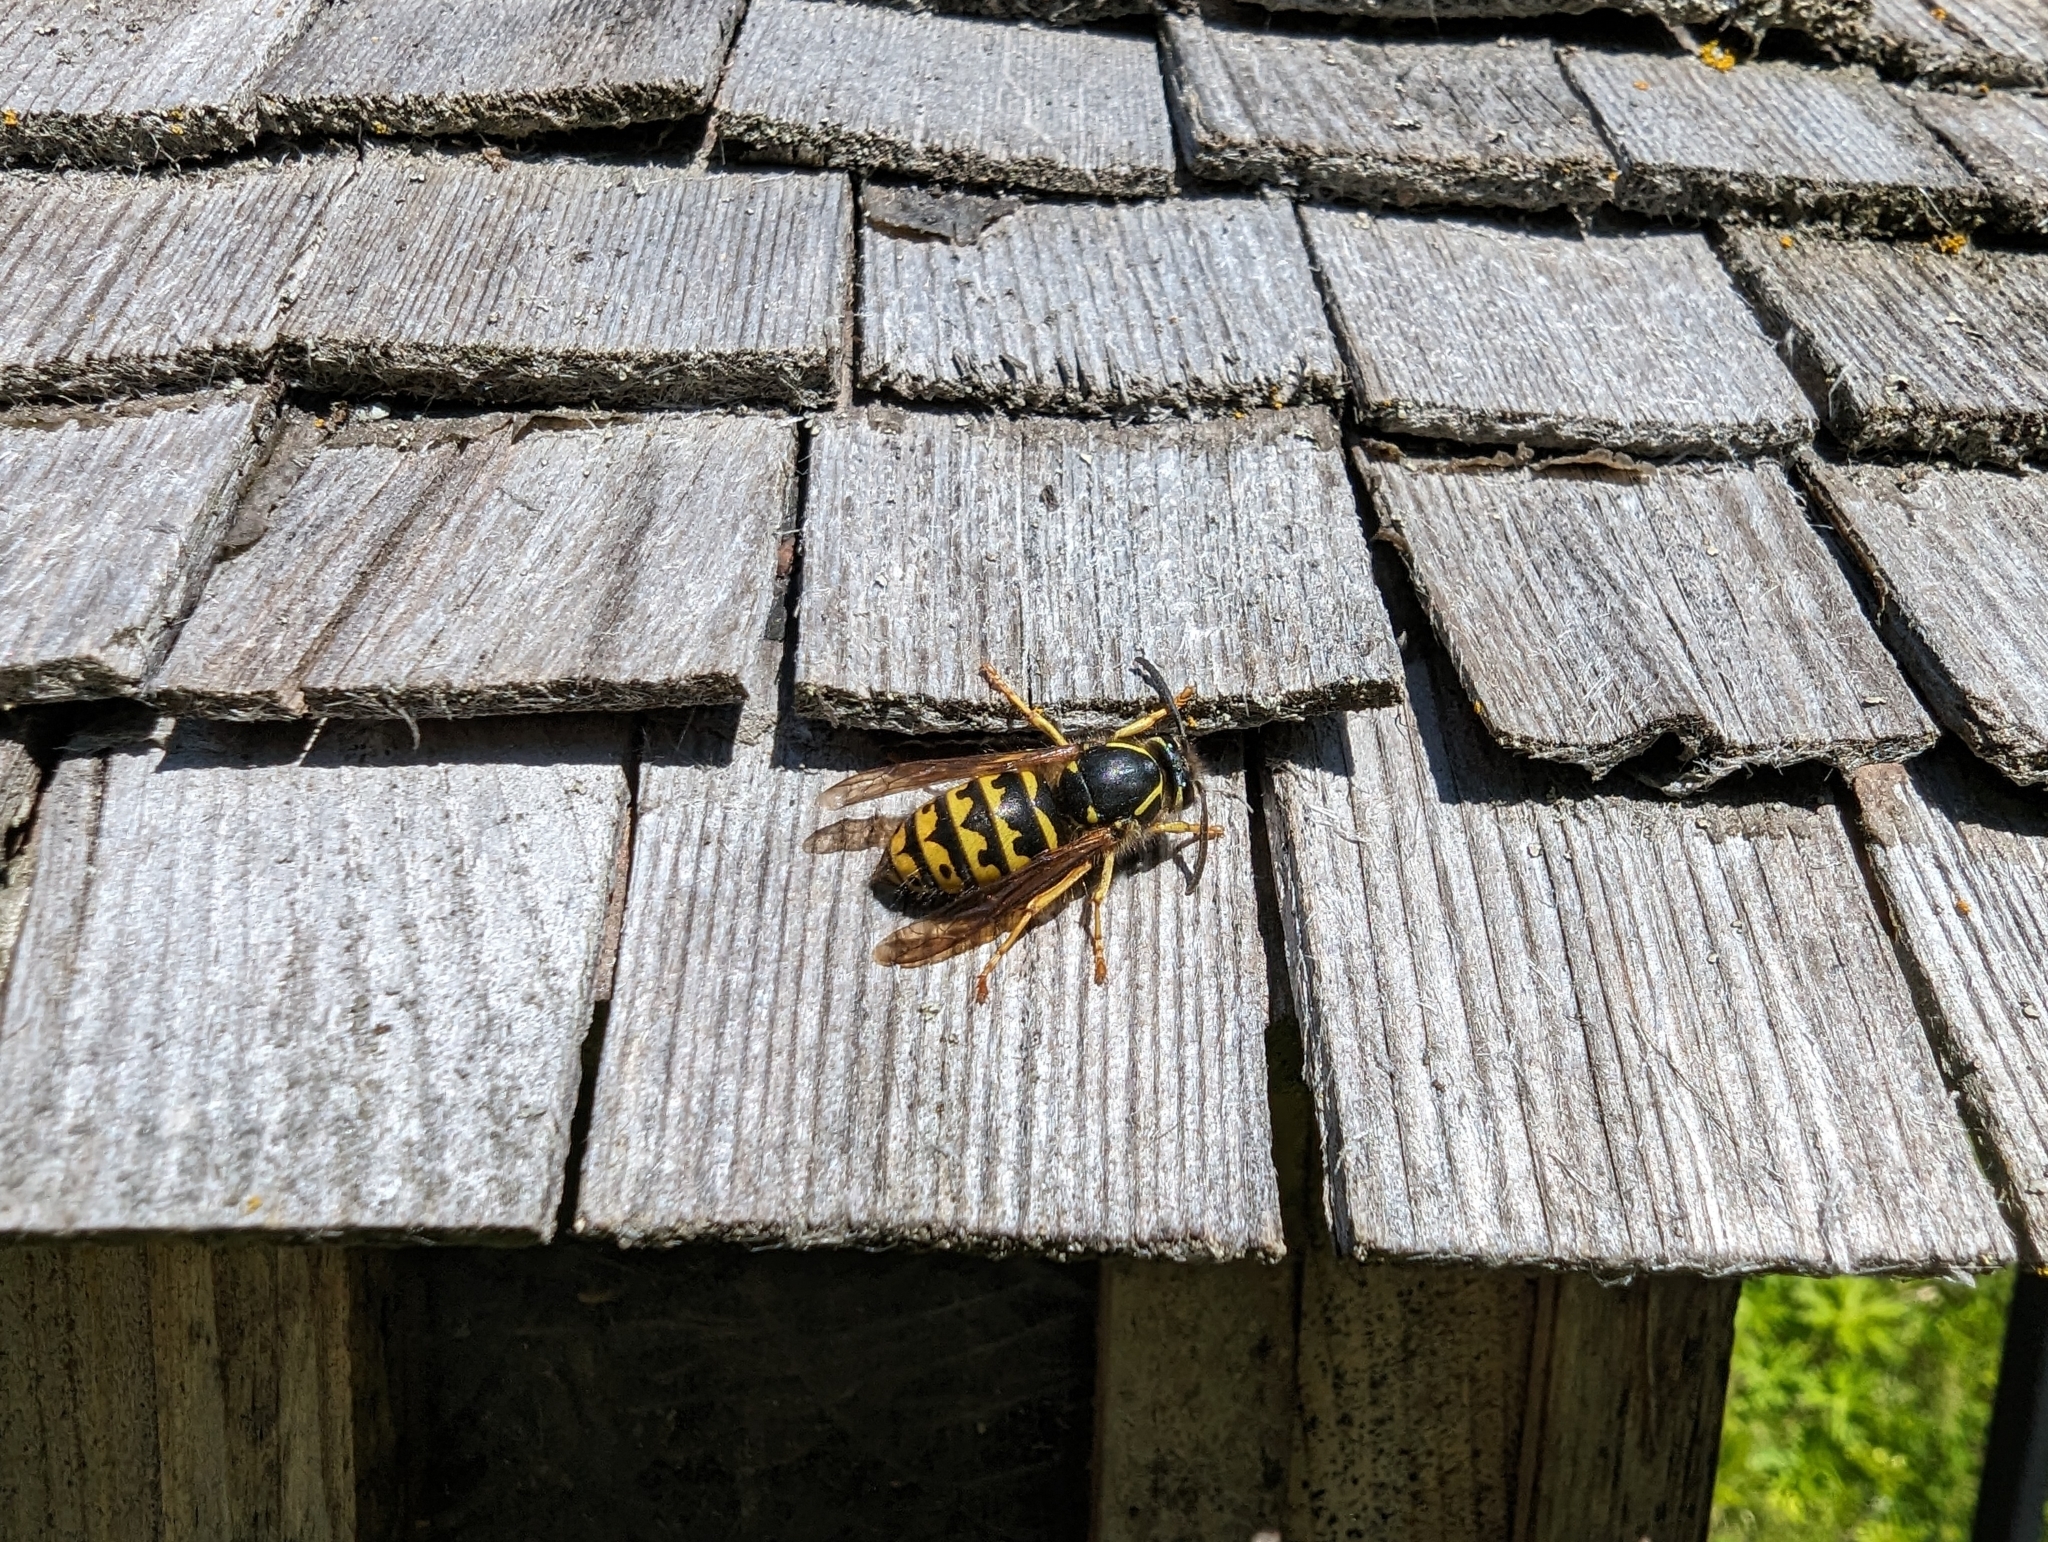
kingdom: Animalia
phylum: Arthropoda
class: Insecta
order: Hymenoptera
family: Vespidae
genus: Dolichovespula
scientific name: Dolichovespula arenaria
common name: Aerial yellowjacket
